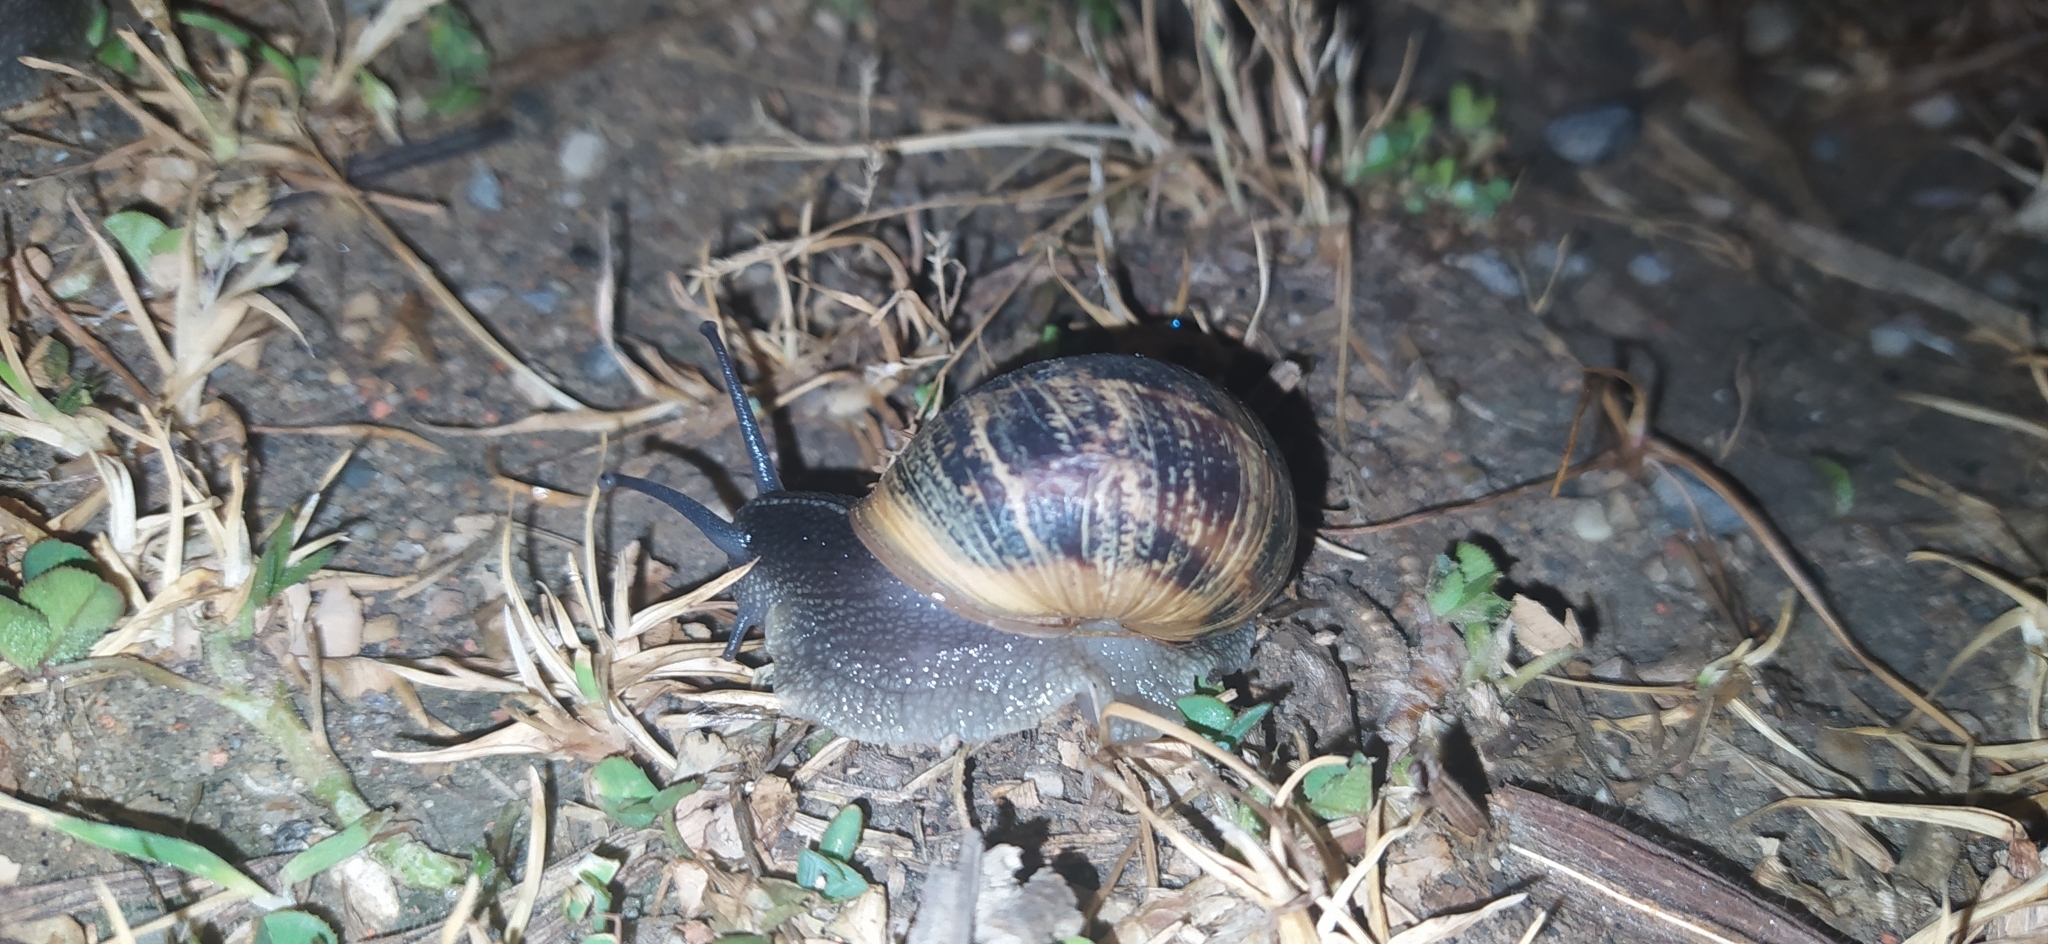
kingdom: Animalia
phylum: Mollusca
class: Gastropoda
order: Stylommatophora
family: Helicidae
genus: Cornu
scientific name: Cornu aspersum
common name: Brown garden snail
